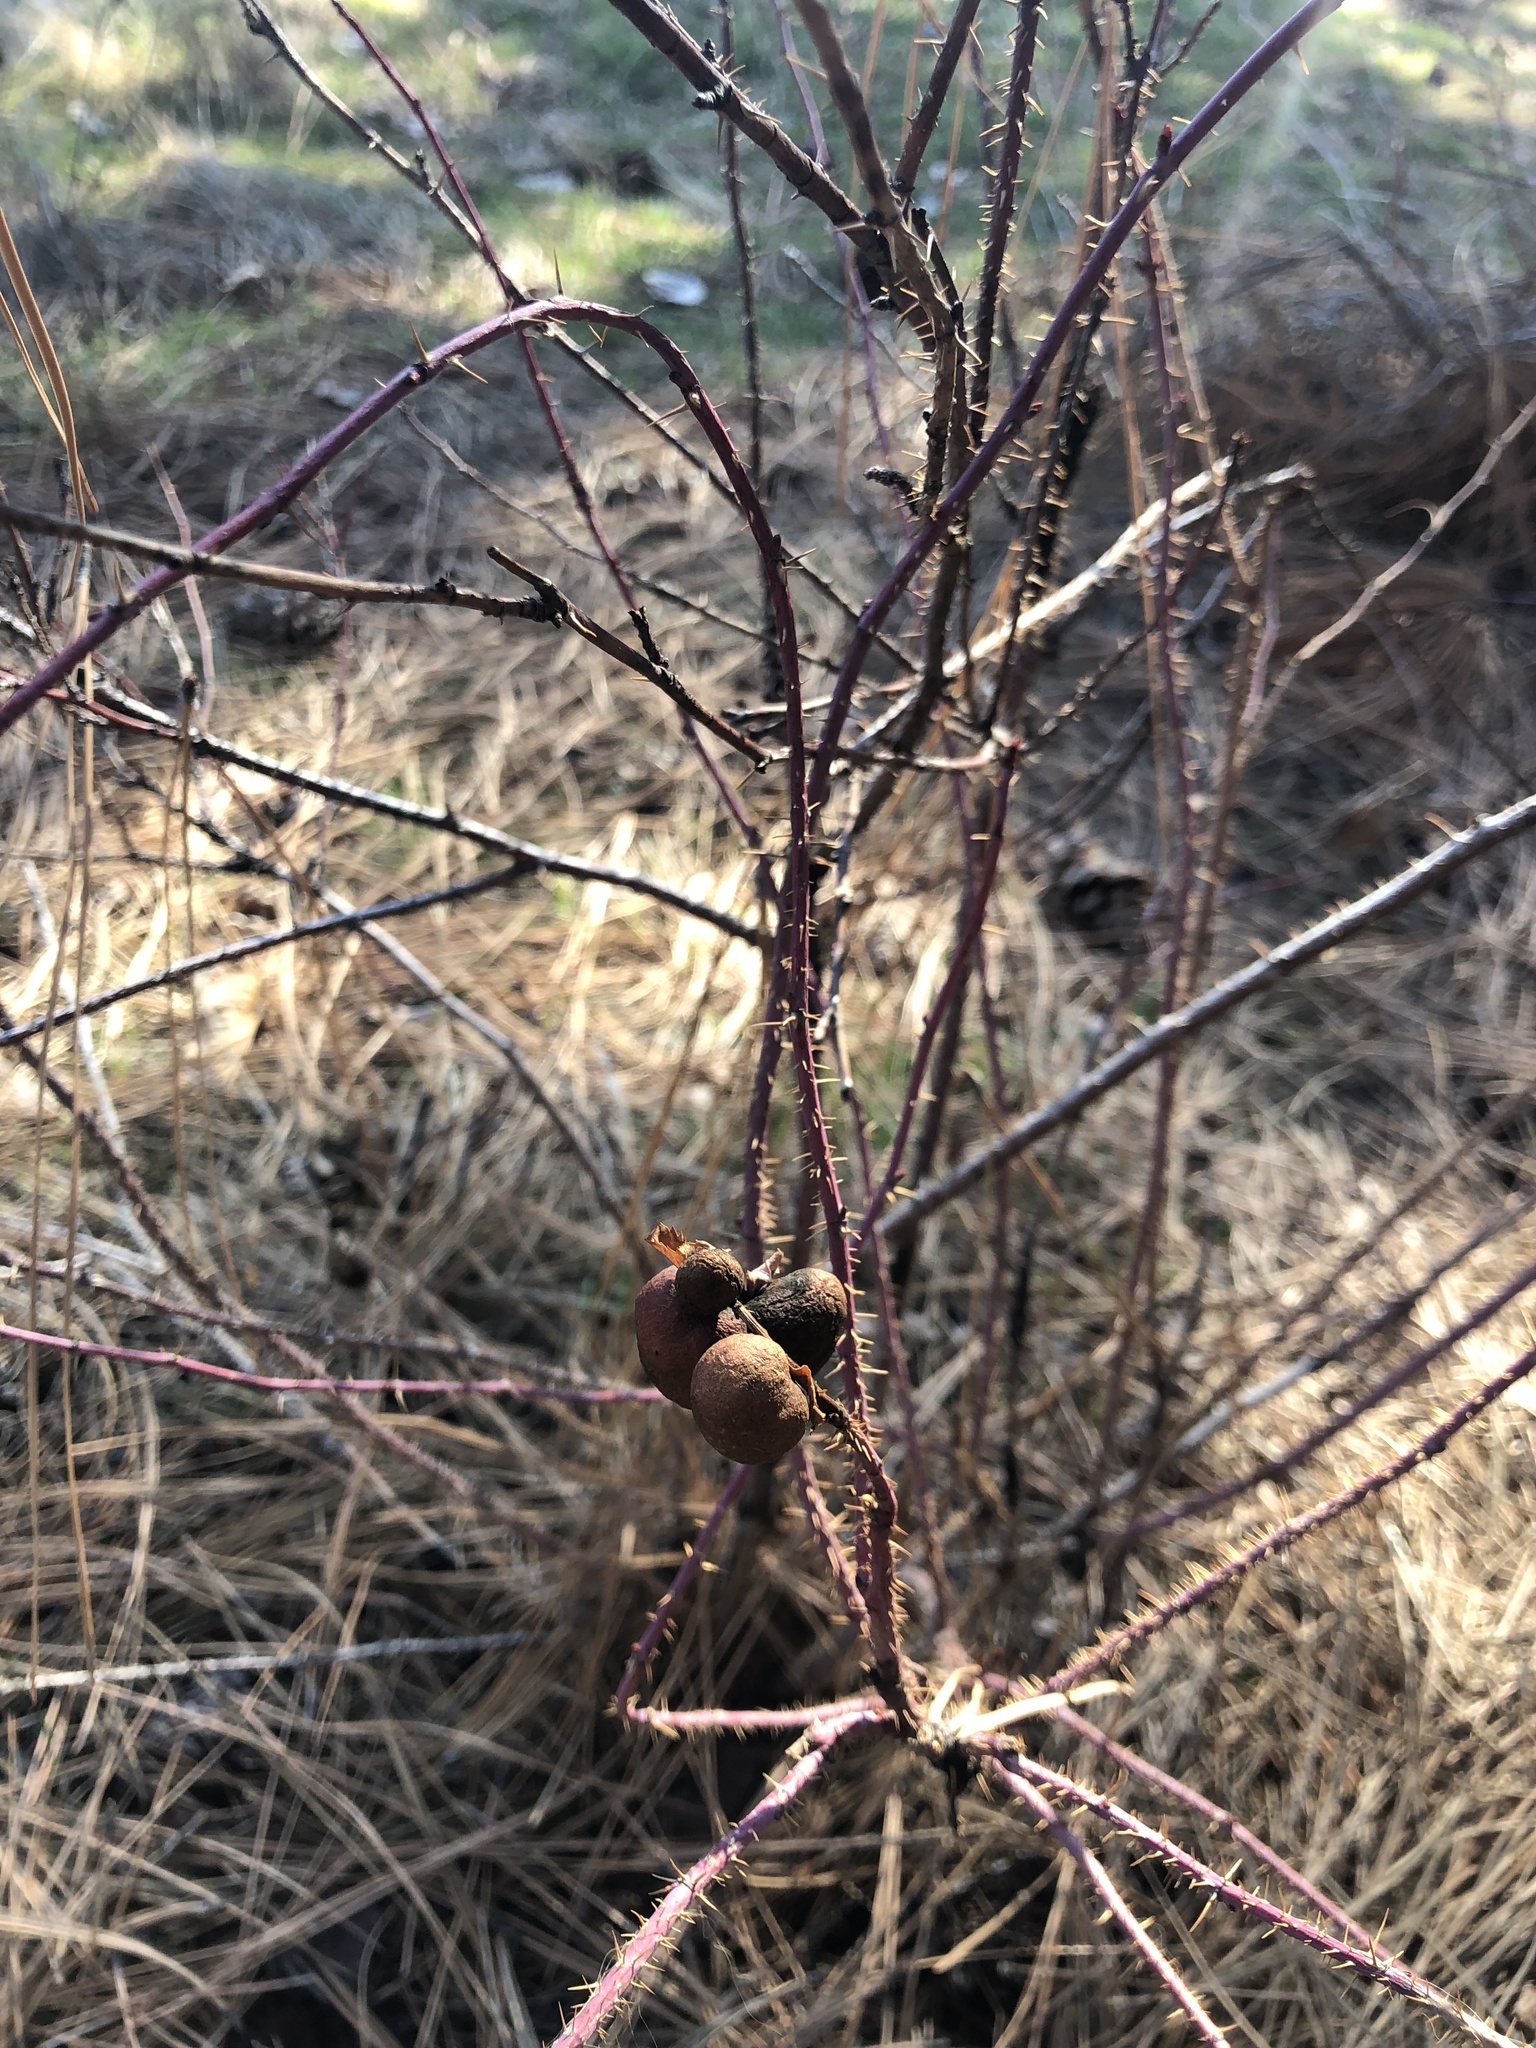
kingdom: Animalia
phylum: Arthropoda
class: Insecta
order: Hymenoptera
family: Cynipidae
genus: Diplolepis
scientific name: Diplolepis variabilis
